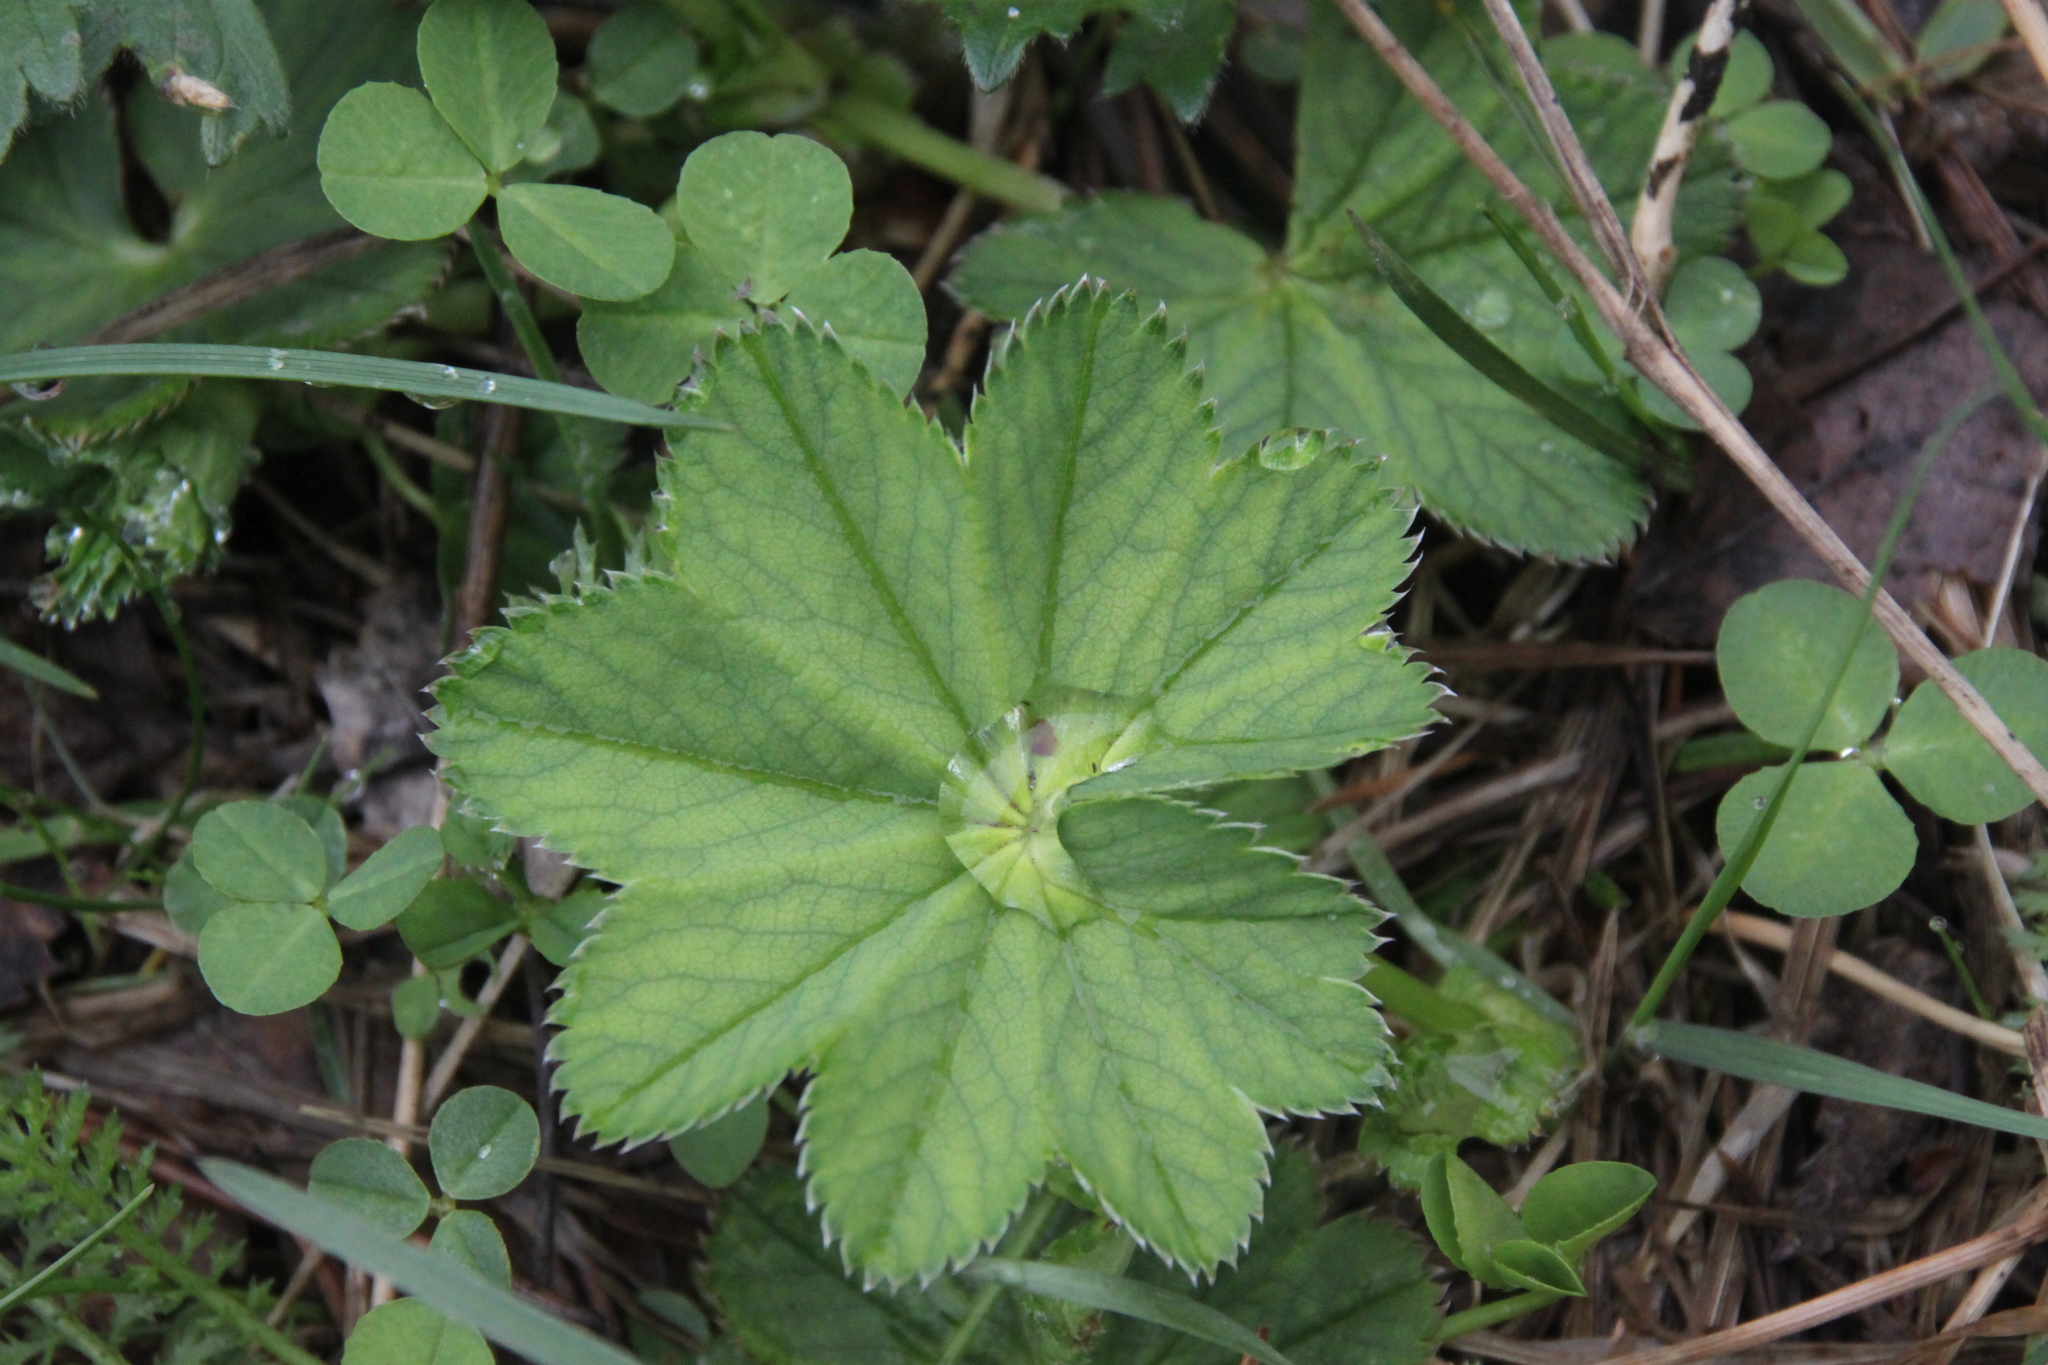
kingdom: Plantae
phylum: Tracheophyta
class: Magnoliopsida
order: Rosales
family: Rosaceae
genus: Alchemilla
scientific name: Alchemilla baltica
